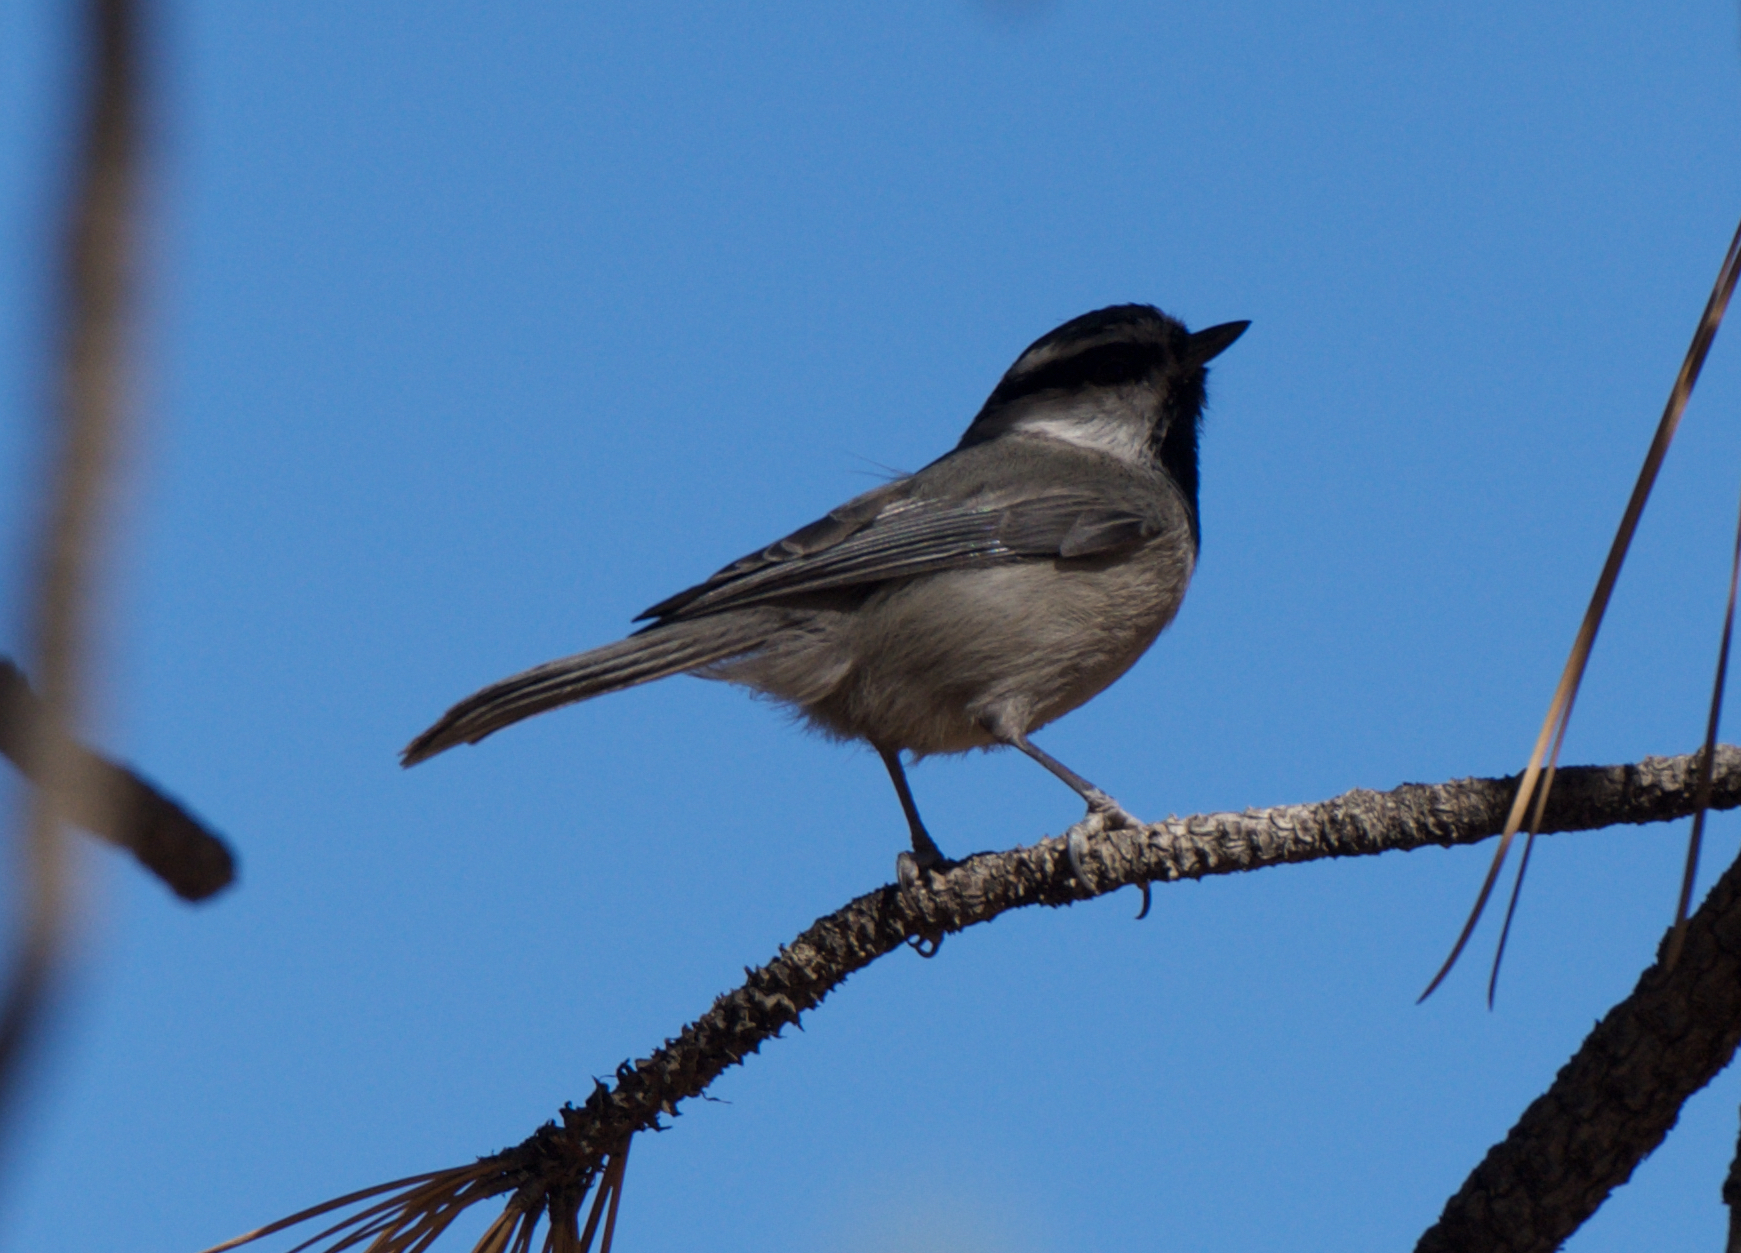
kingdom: Animalia
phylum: Chordata
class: Aves
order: Passeriformes
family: Paridae
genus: Poecile
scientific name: Poecile gambeli
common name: Mountain chickadee
